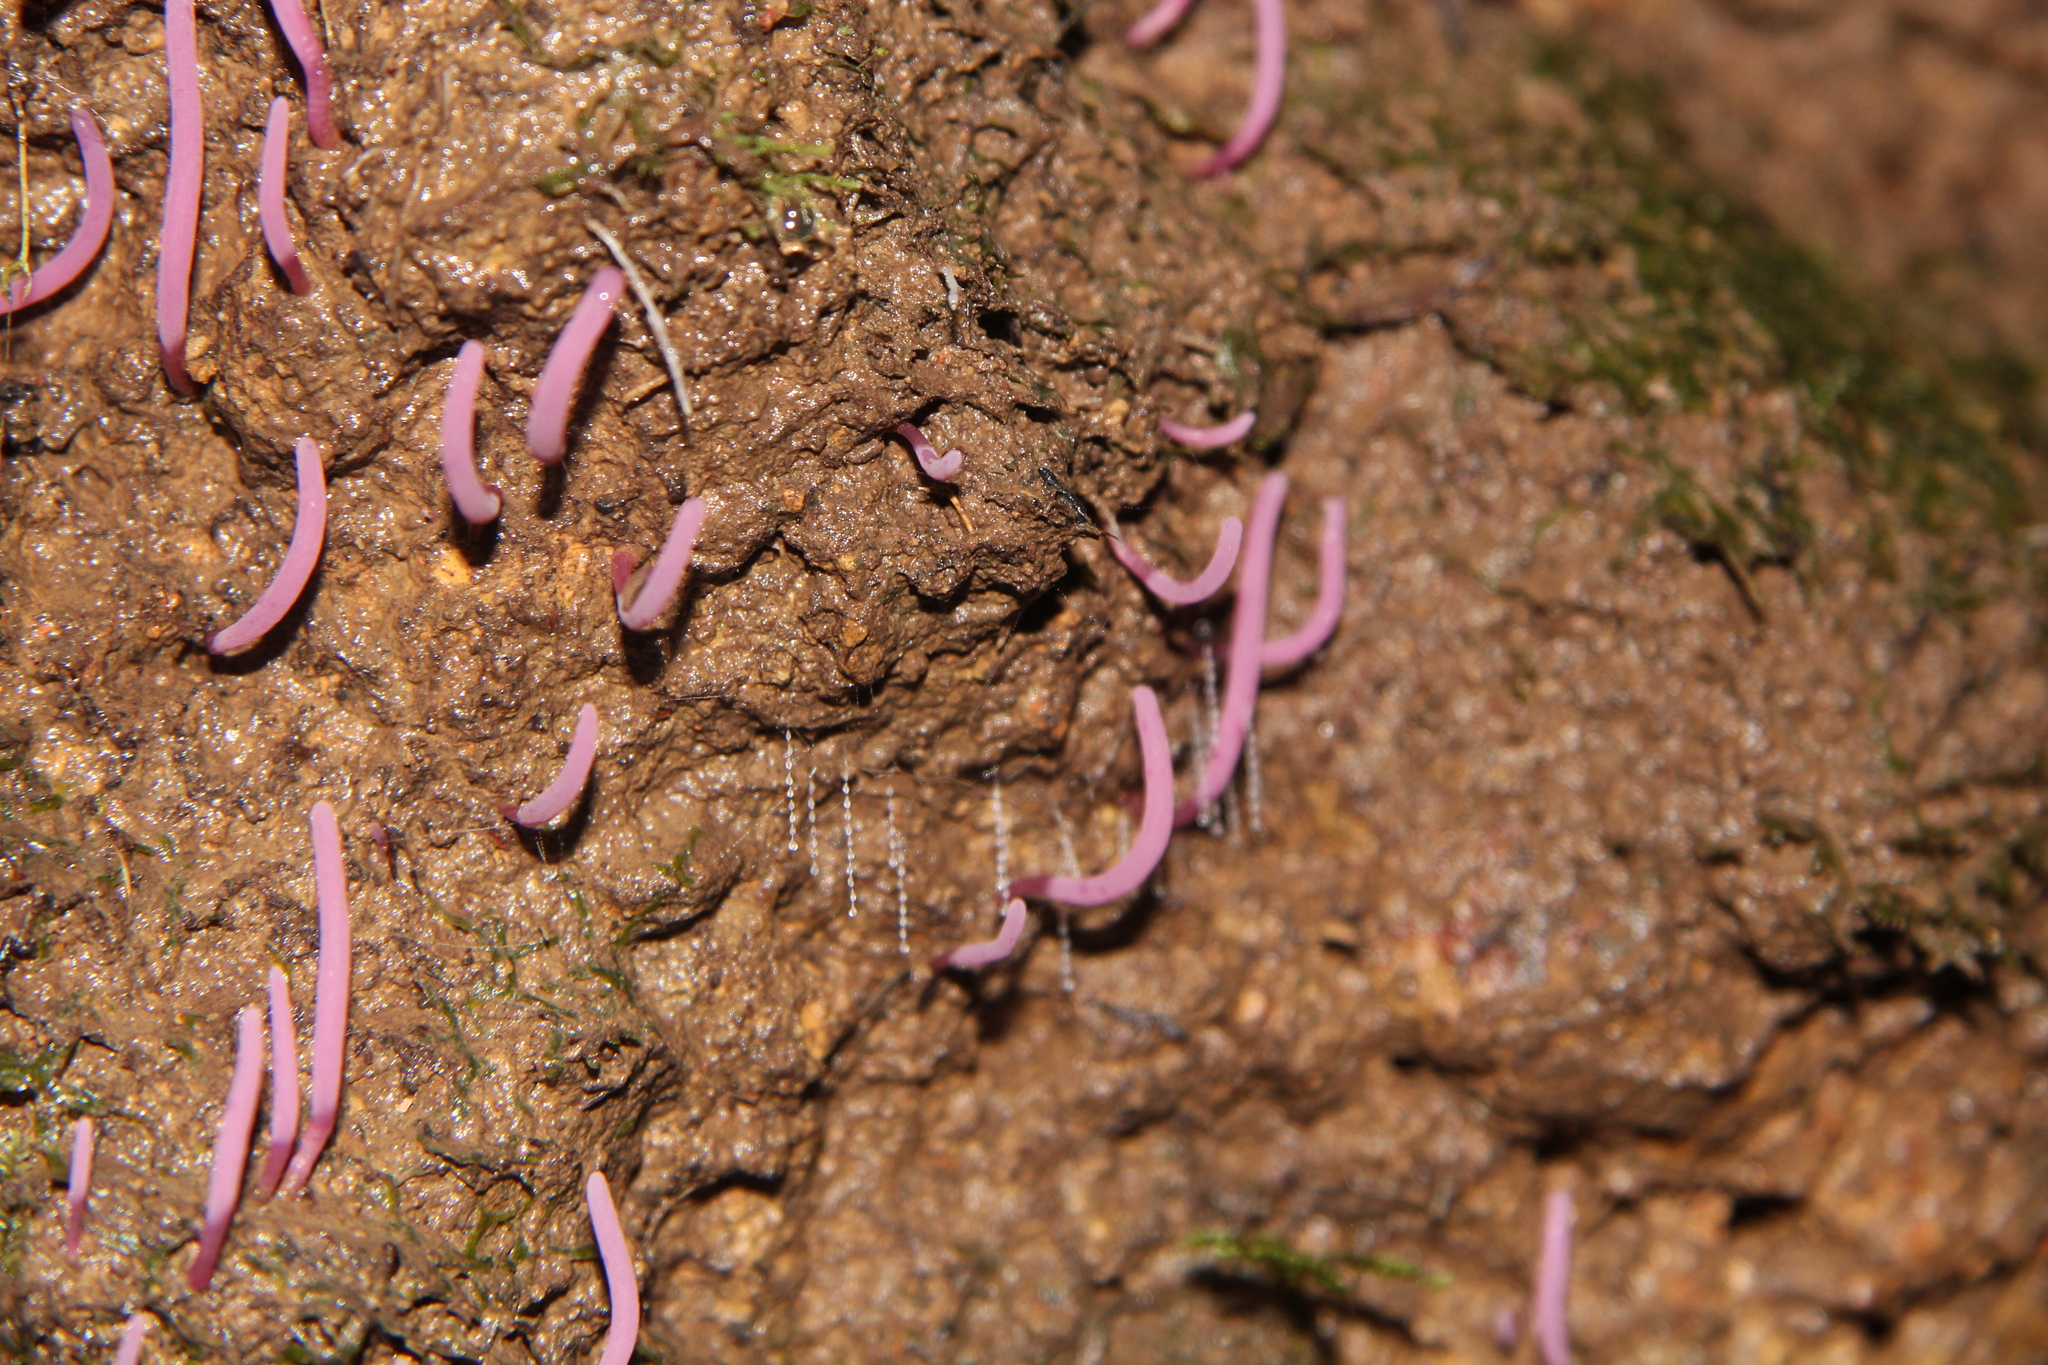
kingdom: Fungi
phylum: Basidiomycota
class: Agaricomycetes
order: Agaricales
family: Clavariaceae
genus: Clavaria
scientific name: Clavaria
